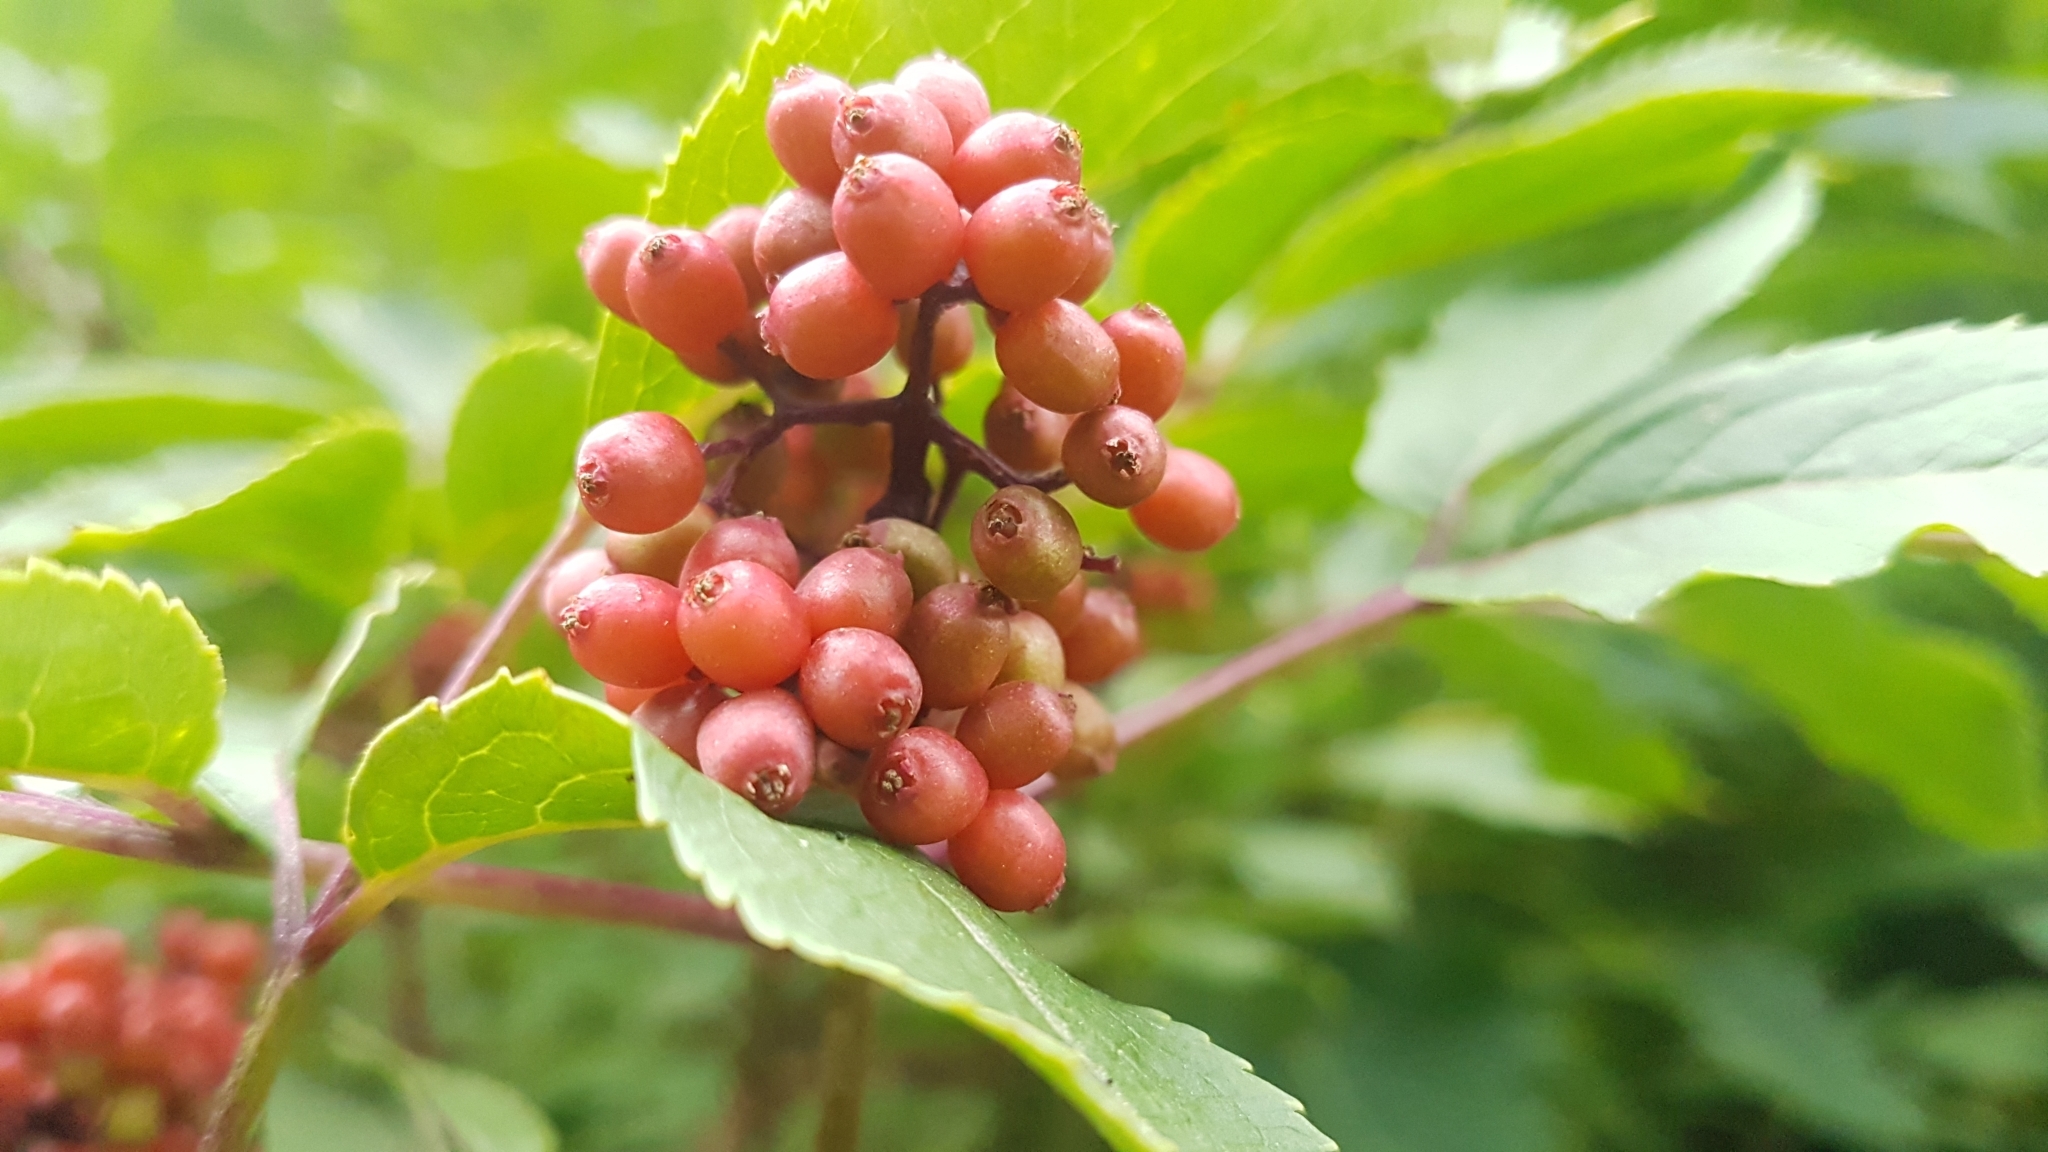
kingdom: Plantae
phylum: Tracheophyta
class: Magnoliopsida
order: Dipsacales
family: Viburnaceae
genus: Sambucus
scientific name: Sambucus racemosa
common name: Red-berried elder
